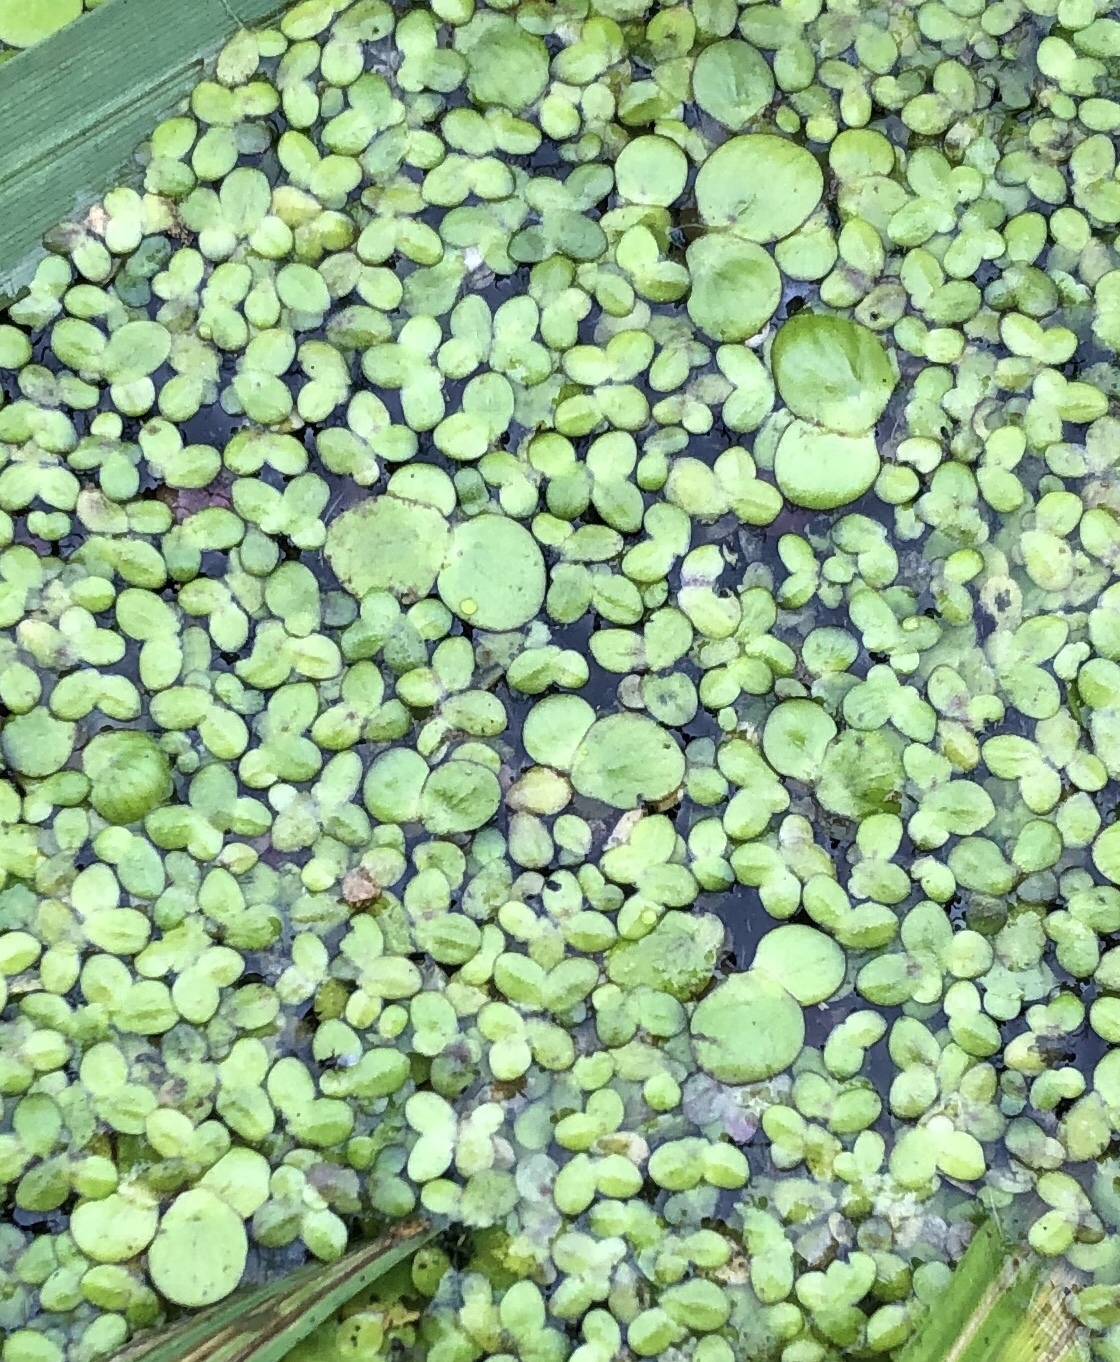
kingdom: Plantae
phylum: Tracheophyta
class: Liliopsida
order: Alismatales
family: Araceae
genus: Spirodela
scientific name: Spirodela polyrhiza
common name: Great duckweed
